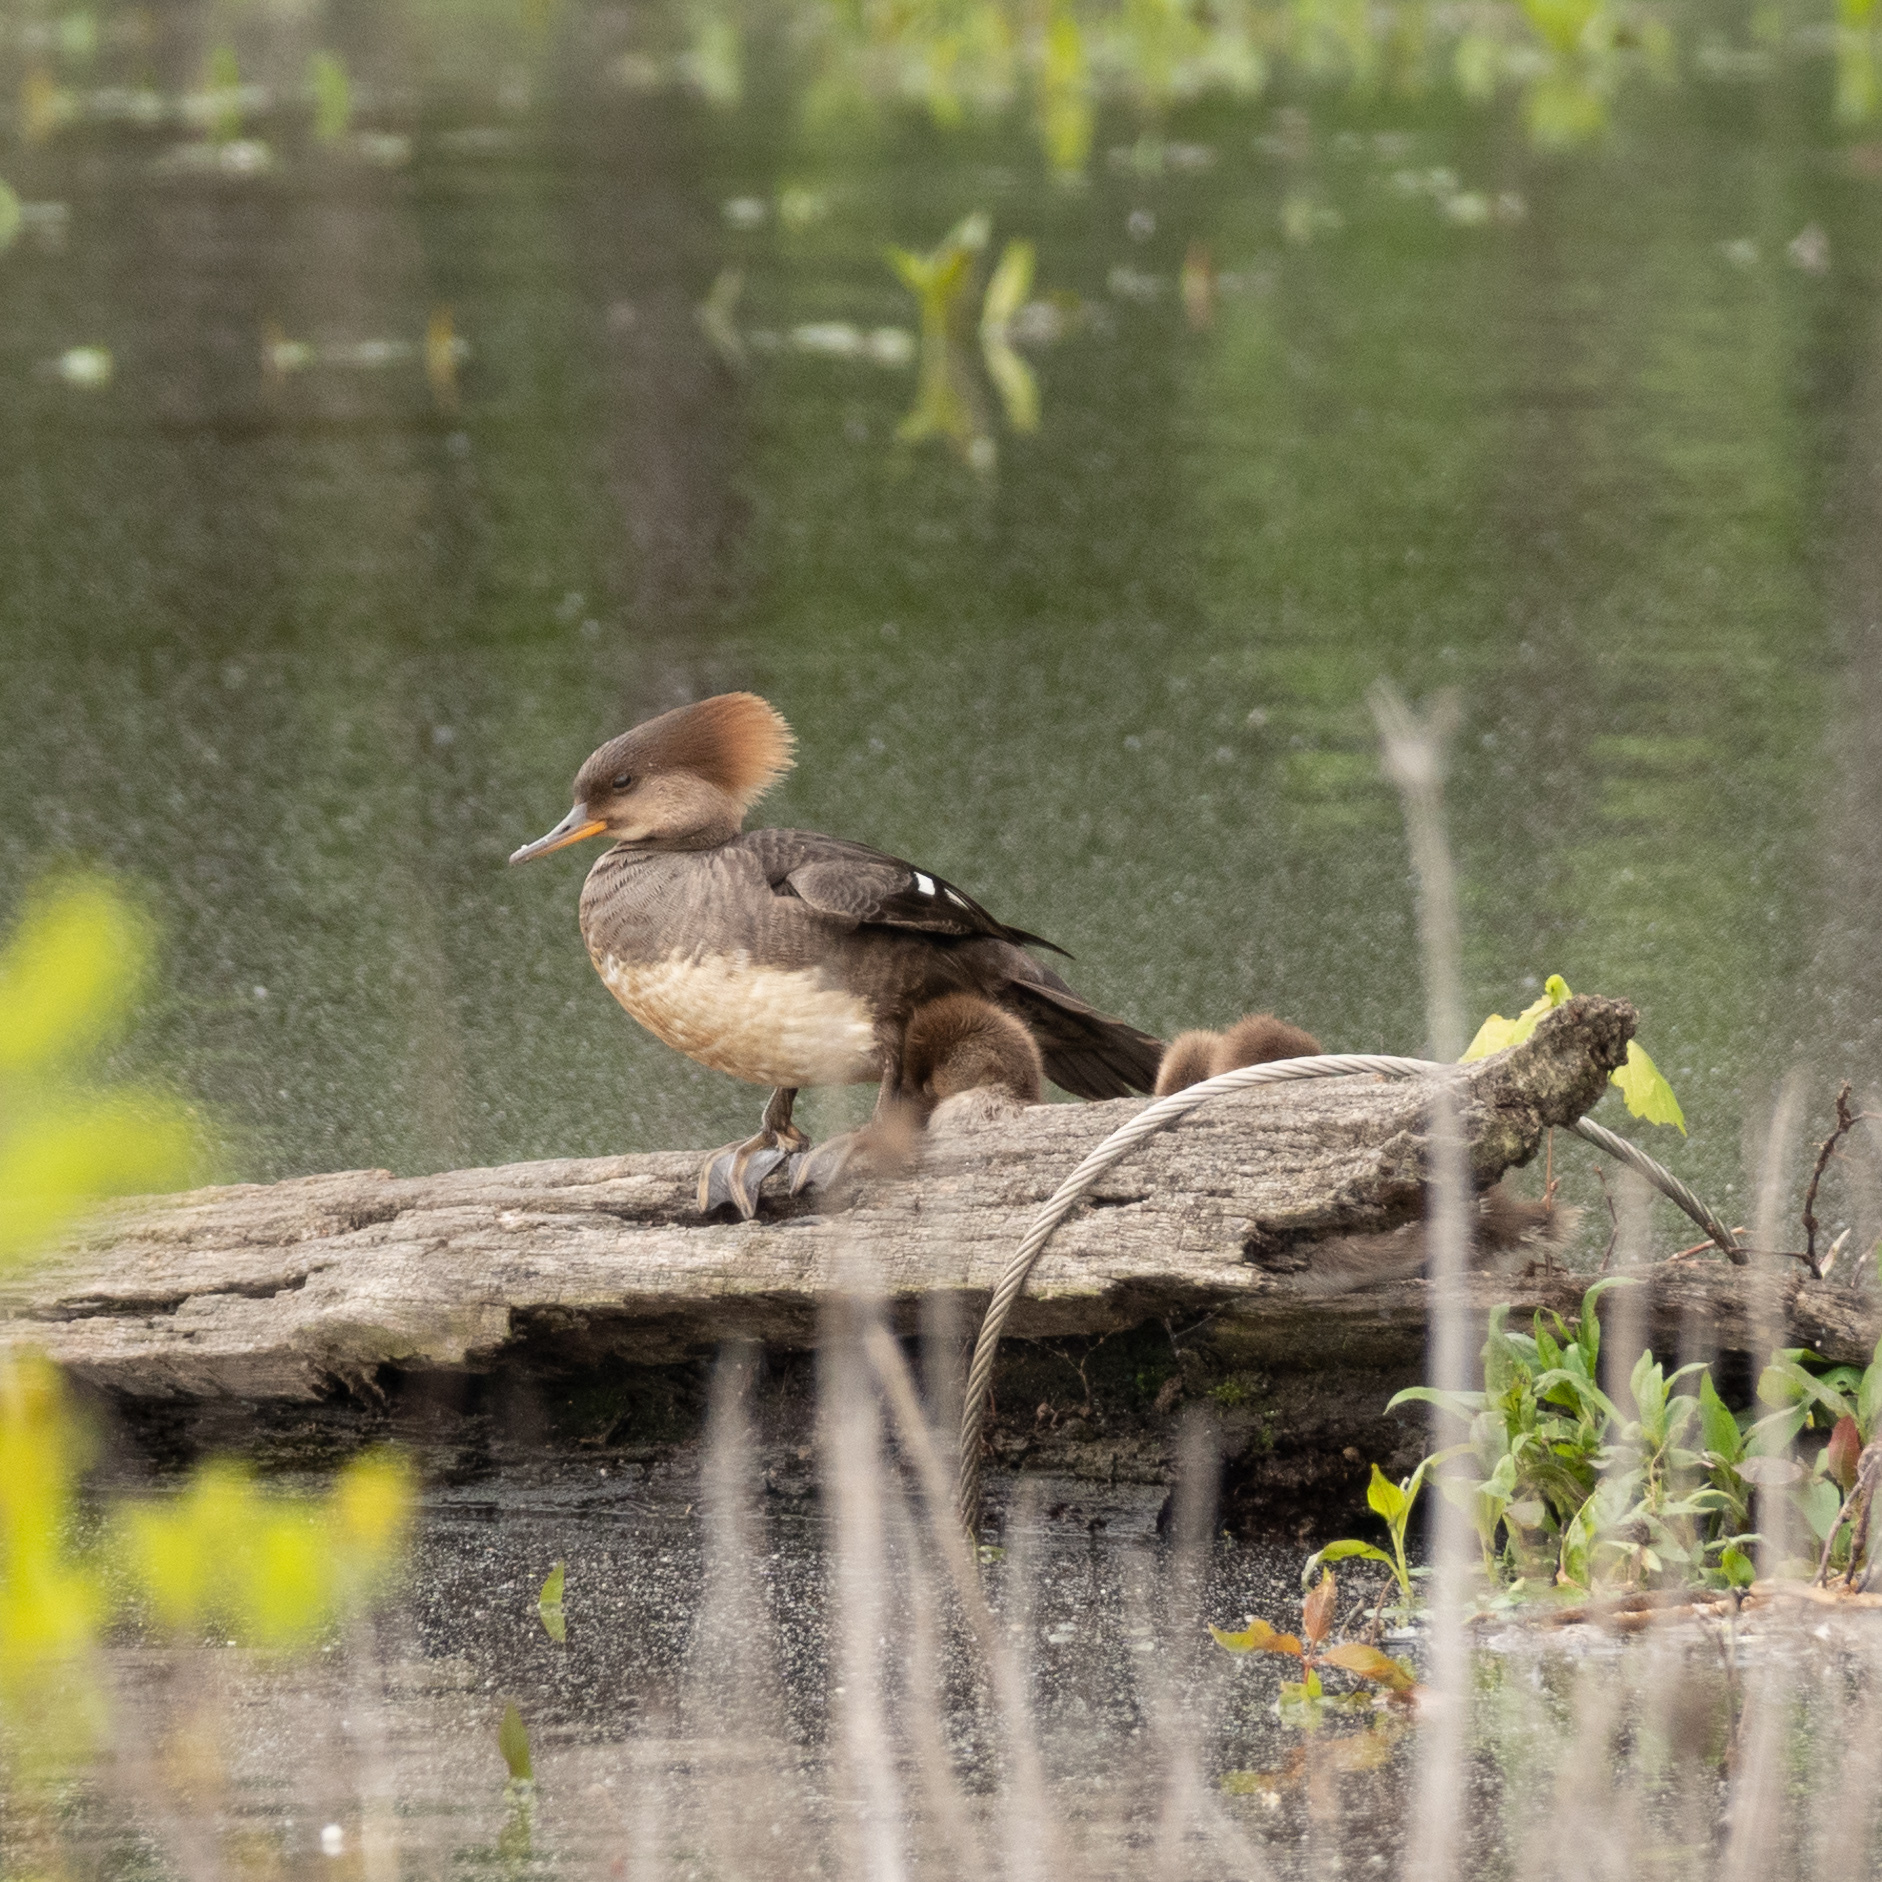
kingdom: Animalia
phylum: Chordata
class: Aves
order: Anseriformes
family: Anatidae
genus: Lophodytes
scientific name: Lophodytes cucullatus
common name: Hooded merganser
